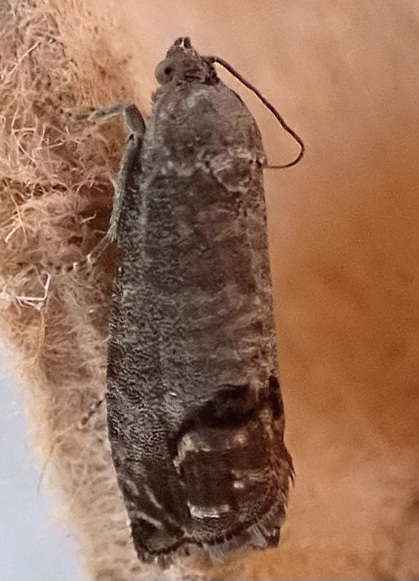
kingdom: Animalia
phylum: Arthropoda
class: Insecta
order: Lepidoptera
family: Tortricidae
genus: Cydia
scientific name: Cydia pomonella
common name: Codling moth
